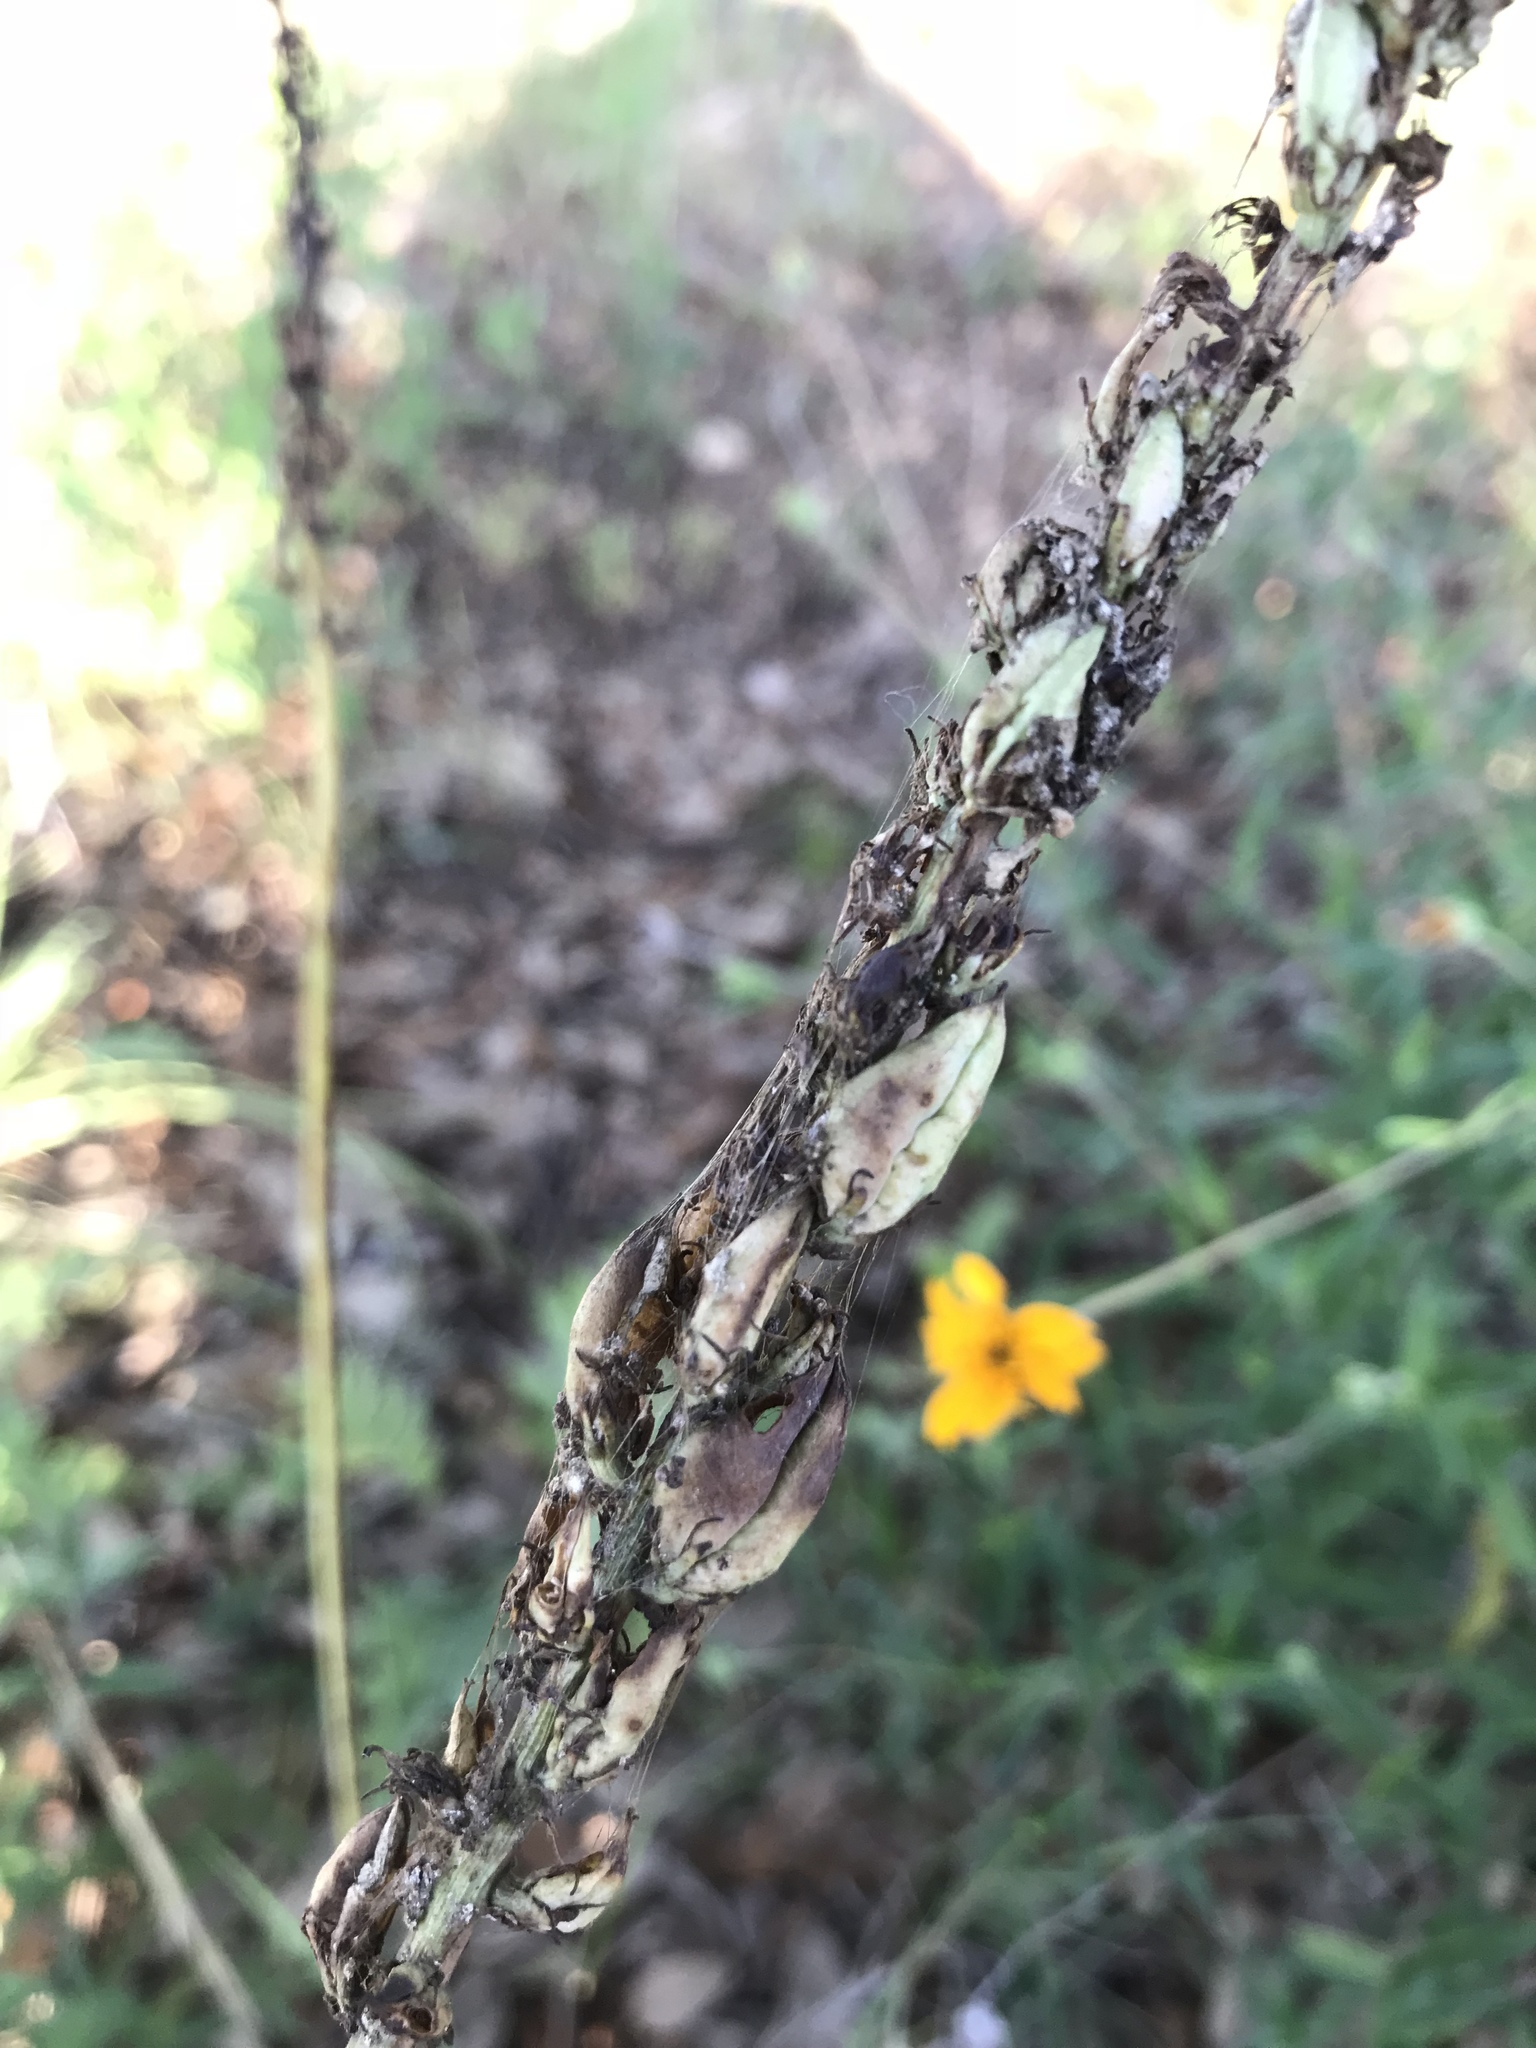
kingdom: Plantae
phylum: Tracheophyta
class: Liliopsida
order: Liliales
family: Melanthiaceae
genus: Schoenocaulon
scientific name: Schoenocaulon texanum
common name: Texas feather-shank
